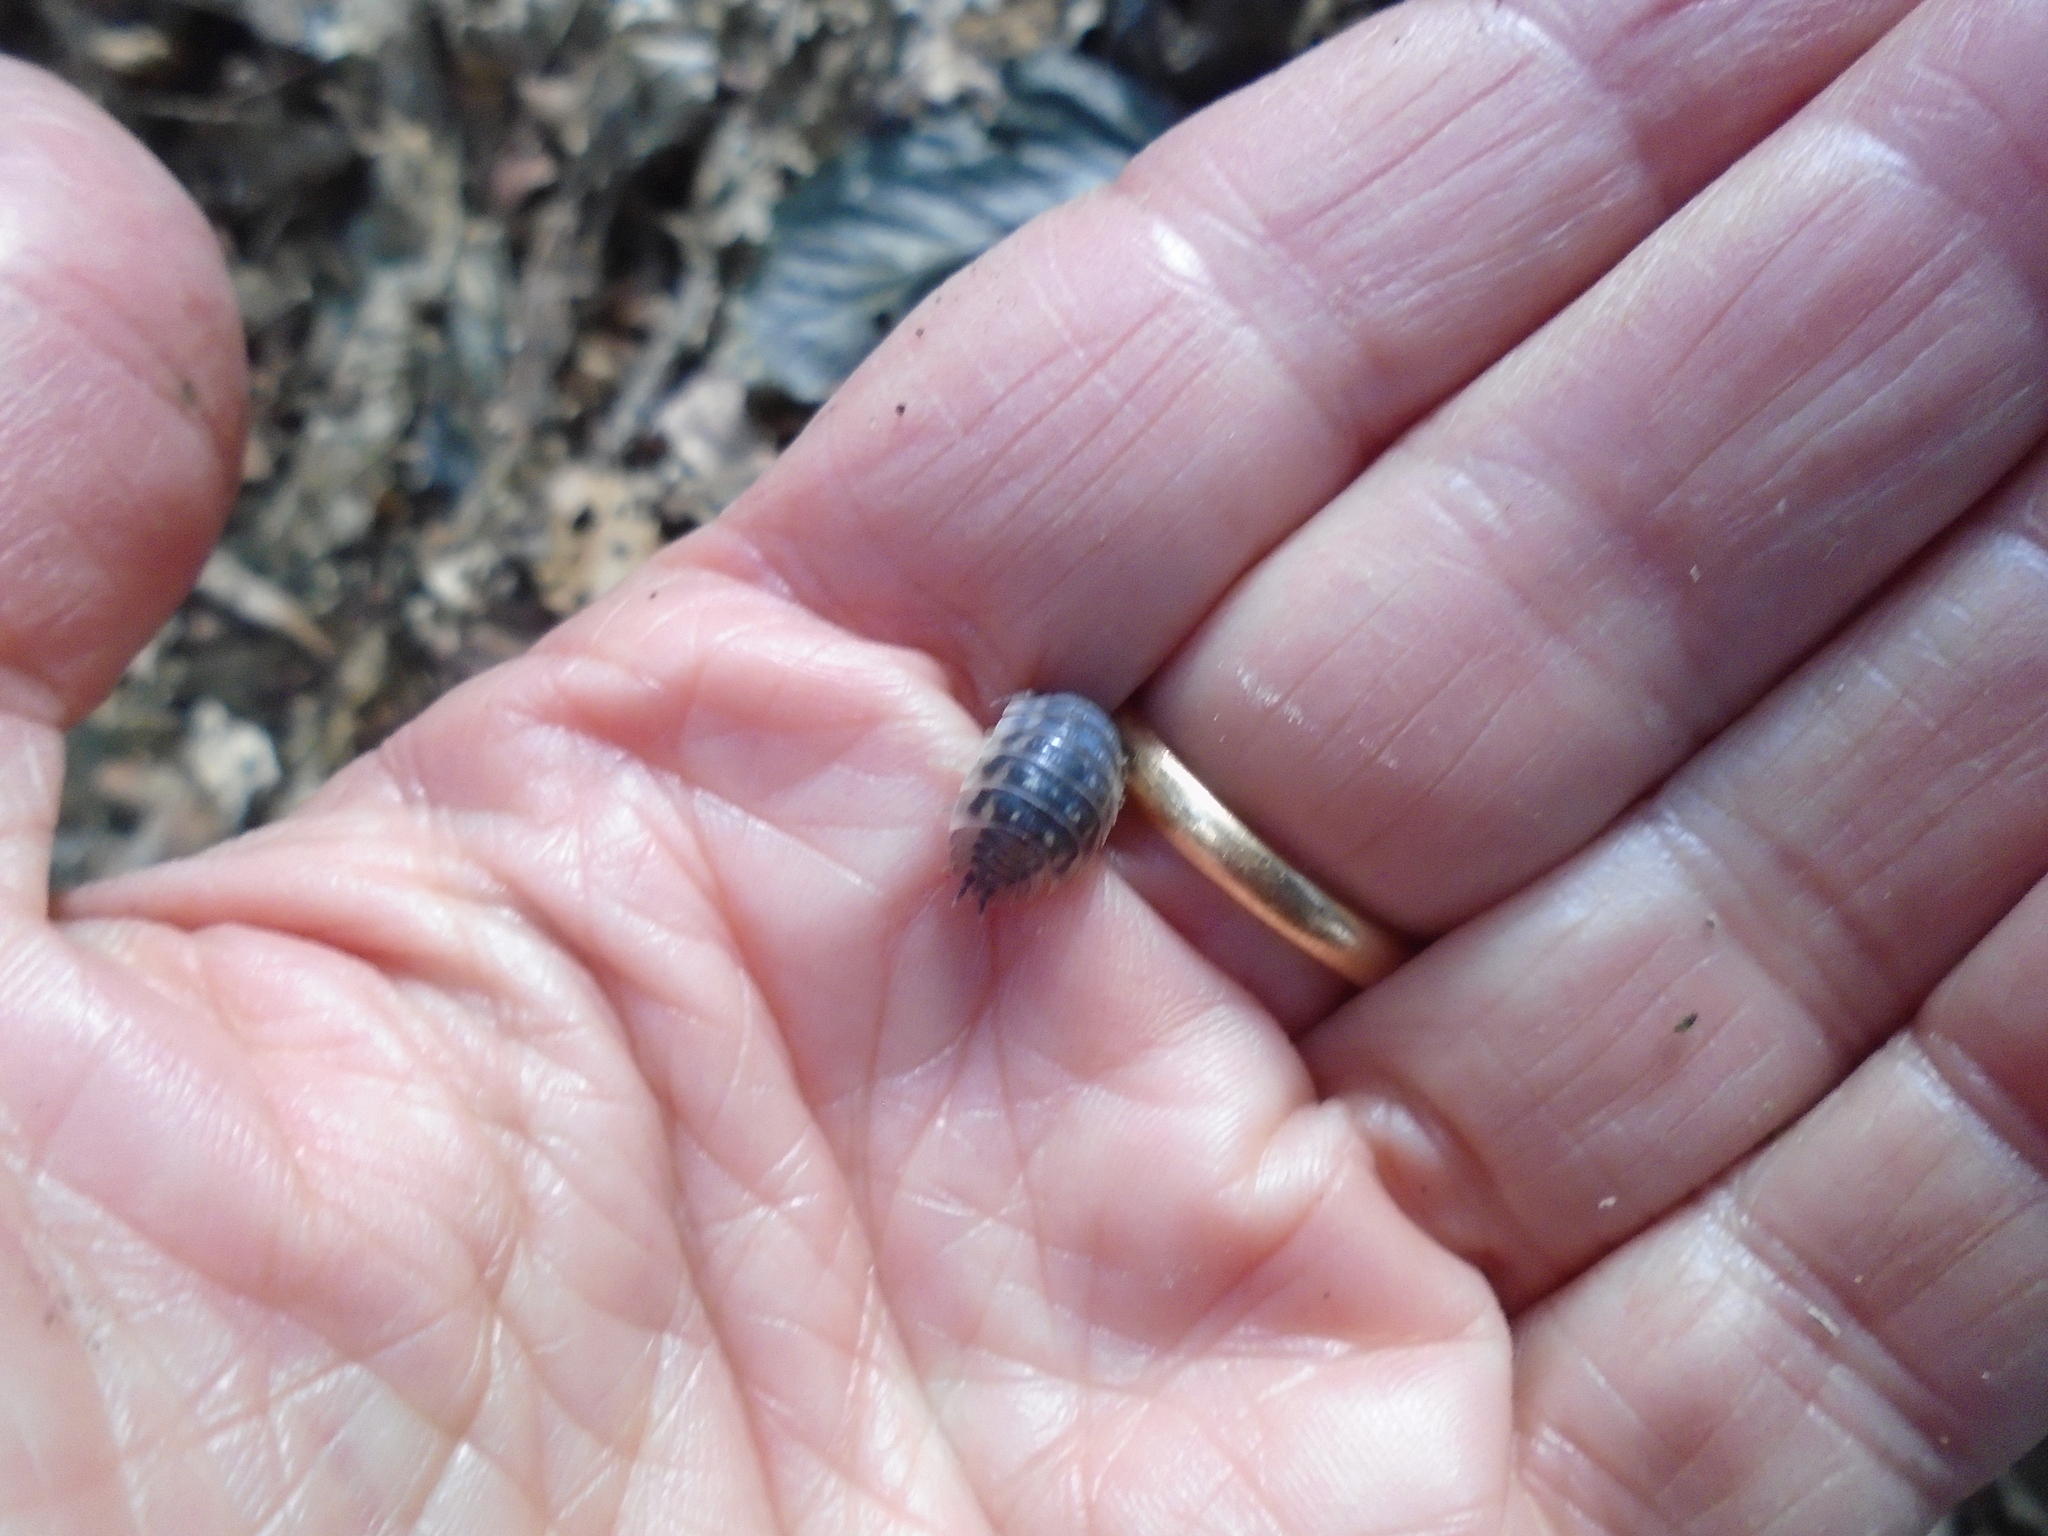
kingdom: Animalia
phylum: Arthropoda
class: Malacostraca
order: Isopoda
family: Oniscidae
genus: Oniscus
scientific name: Oniscus asellus
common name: Common shiny woodlouse
